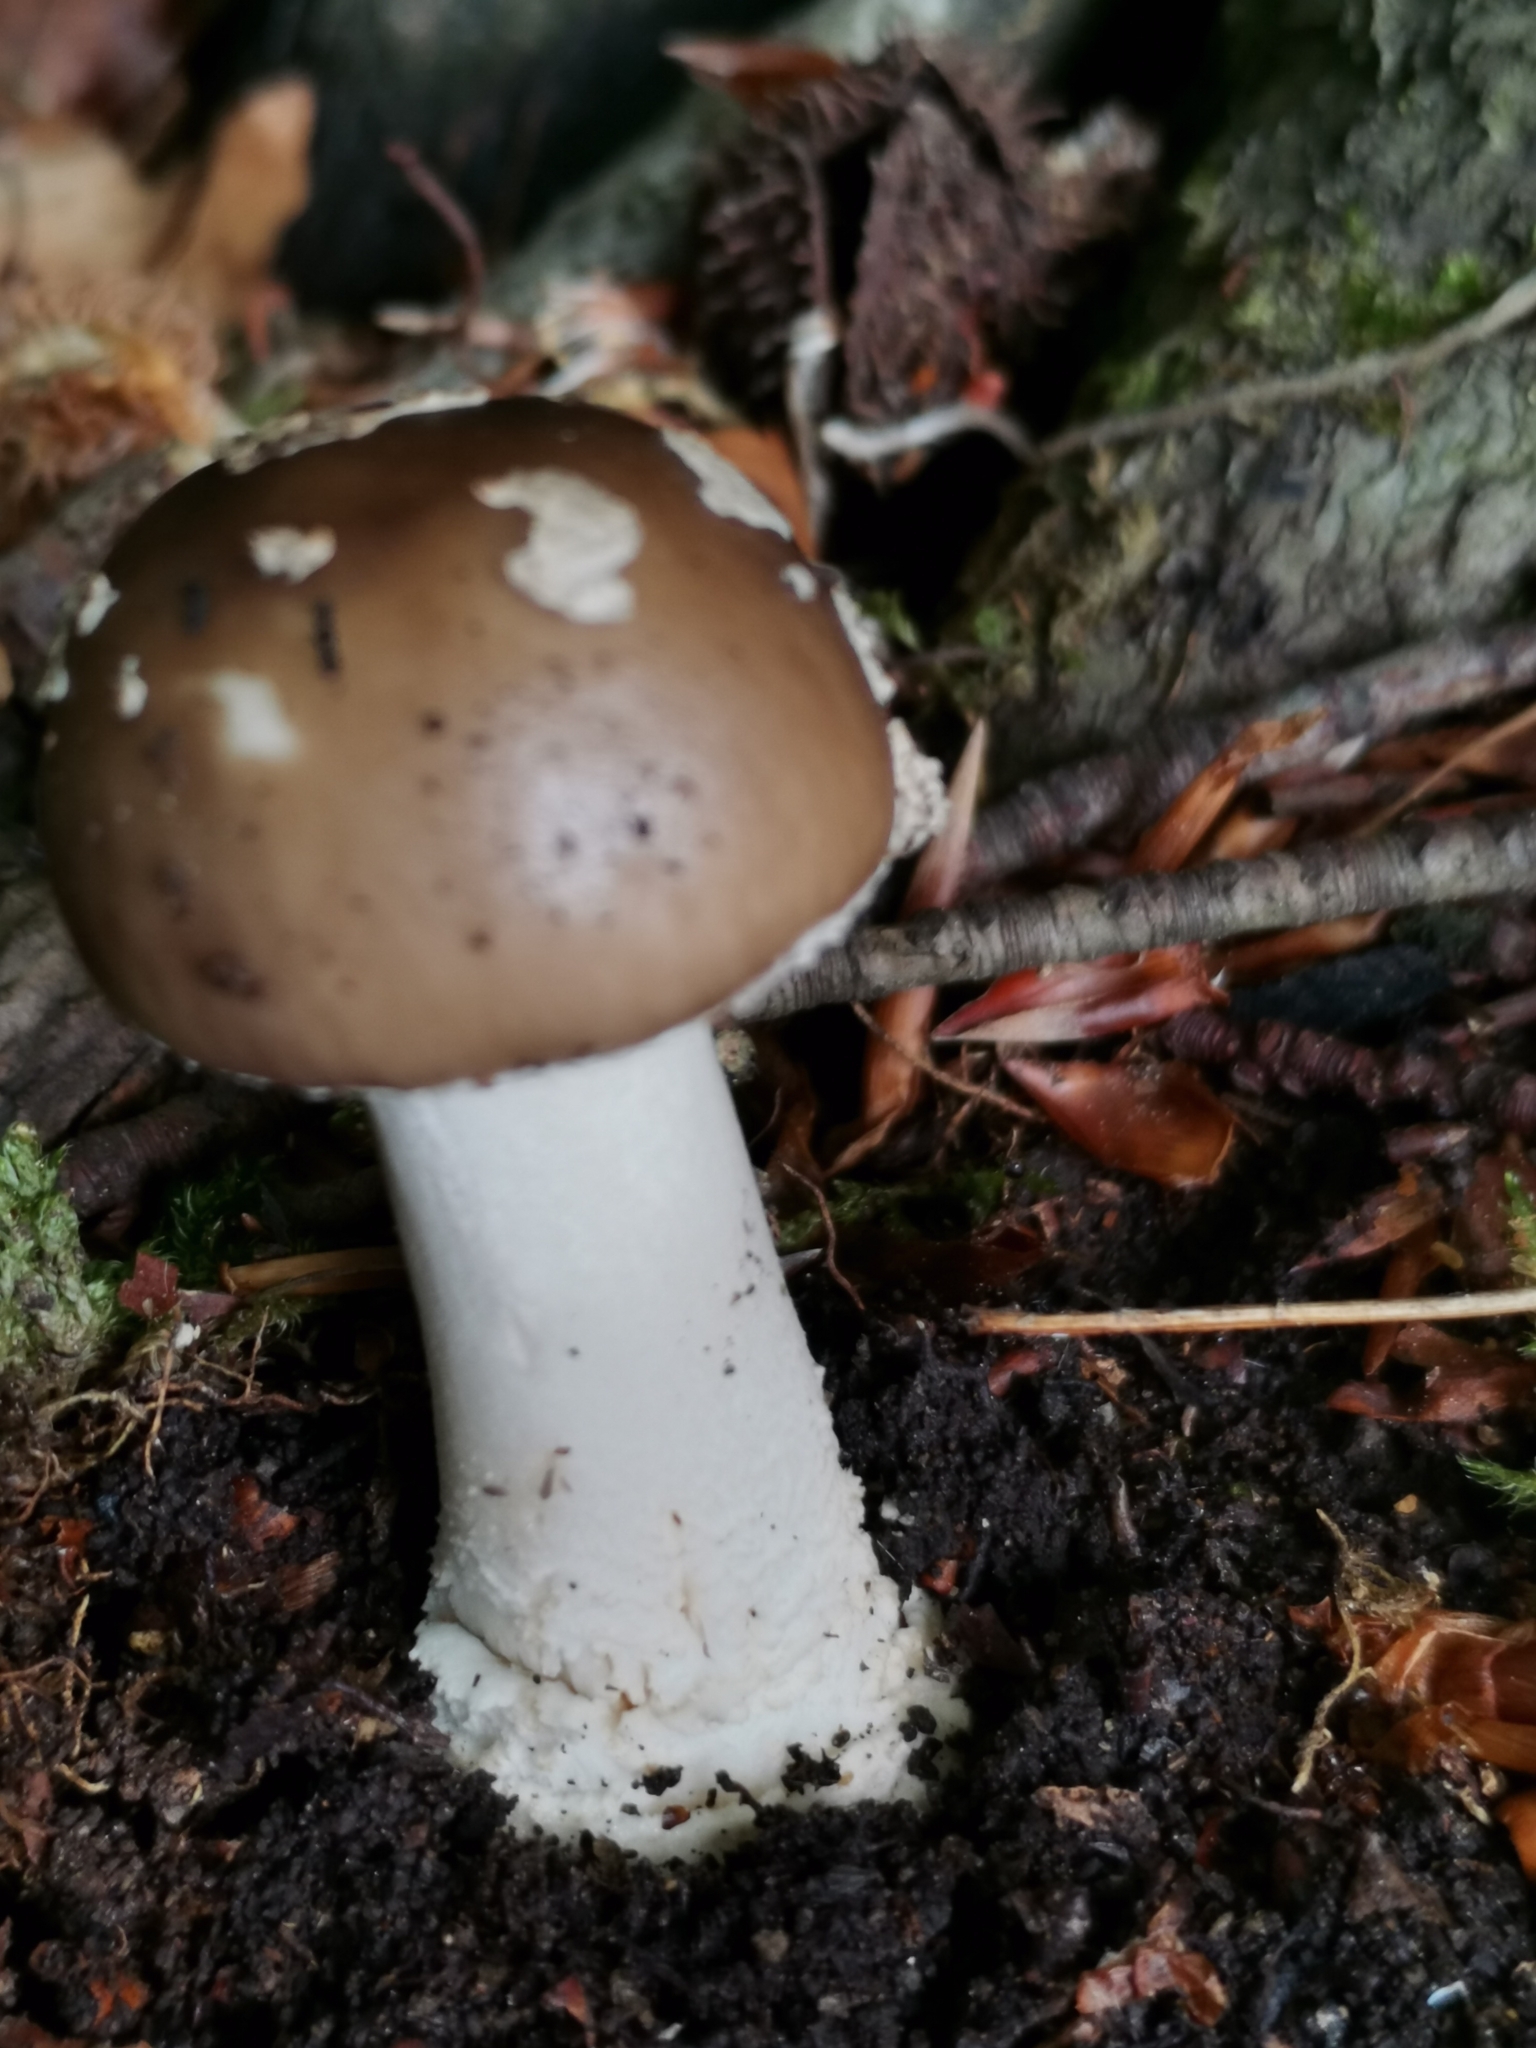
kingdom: Fungi
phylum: Basidiomycota
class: Agaricomycetes
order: Agaricales
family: Amanitaceae
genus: Amanita
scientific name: Amanita excelsa
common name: European false blusher
